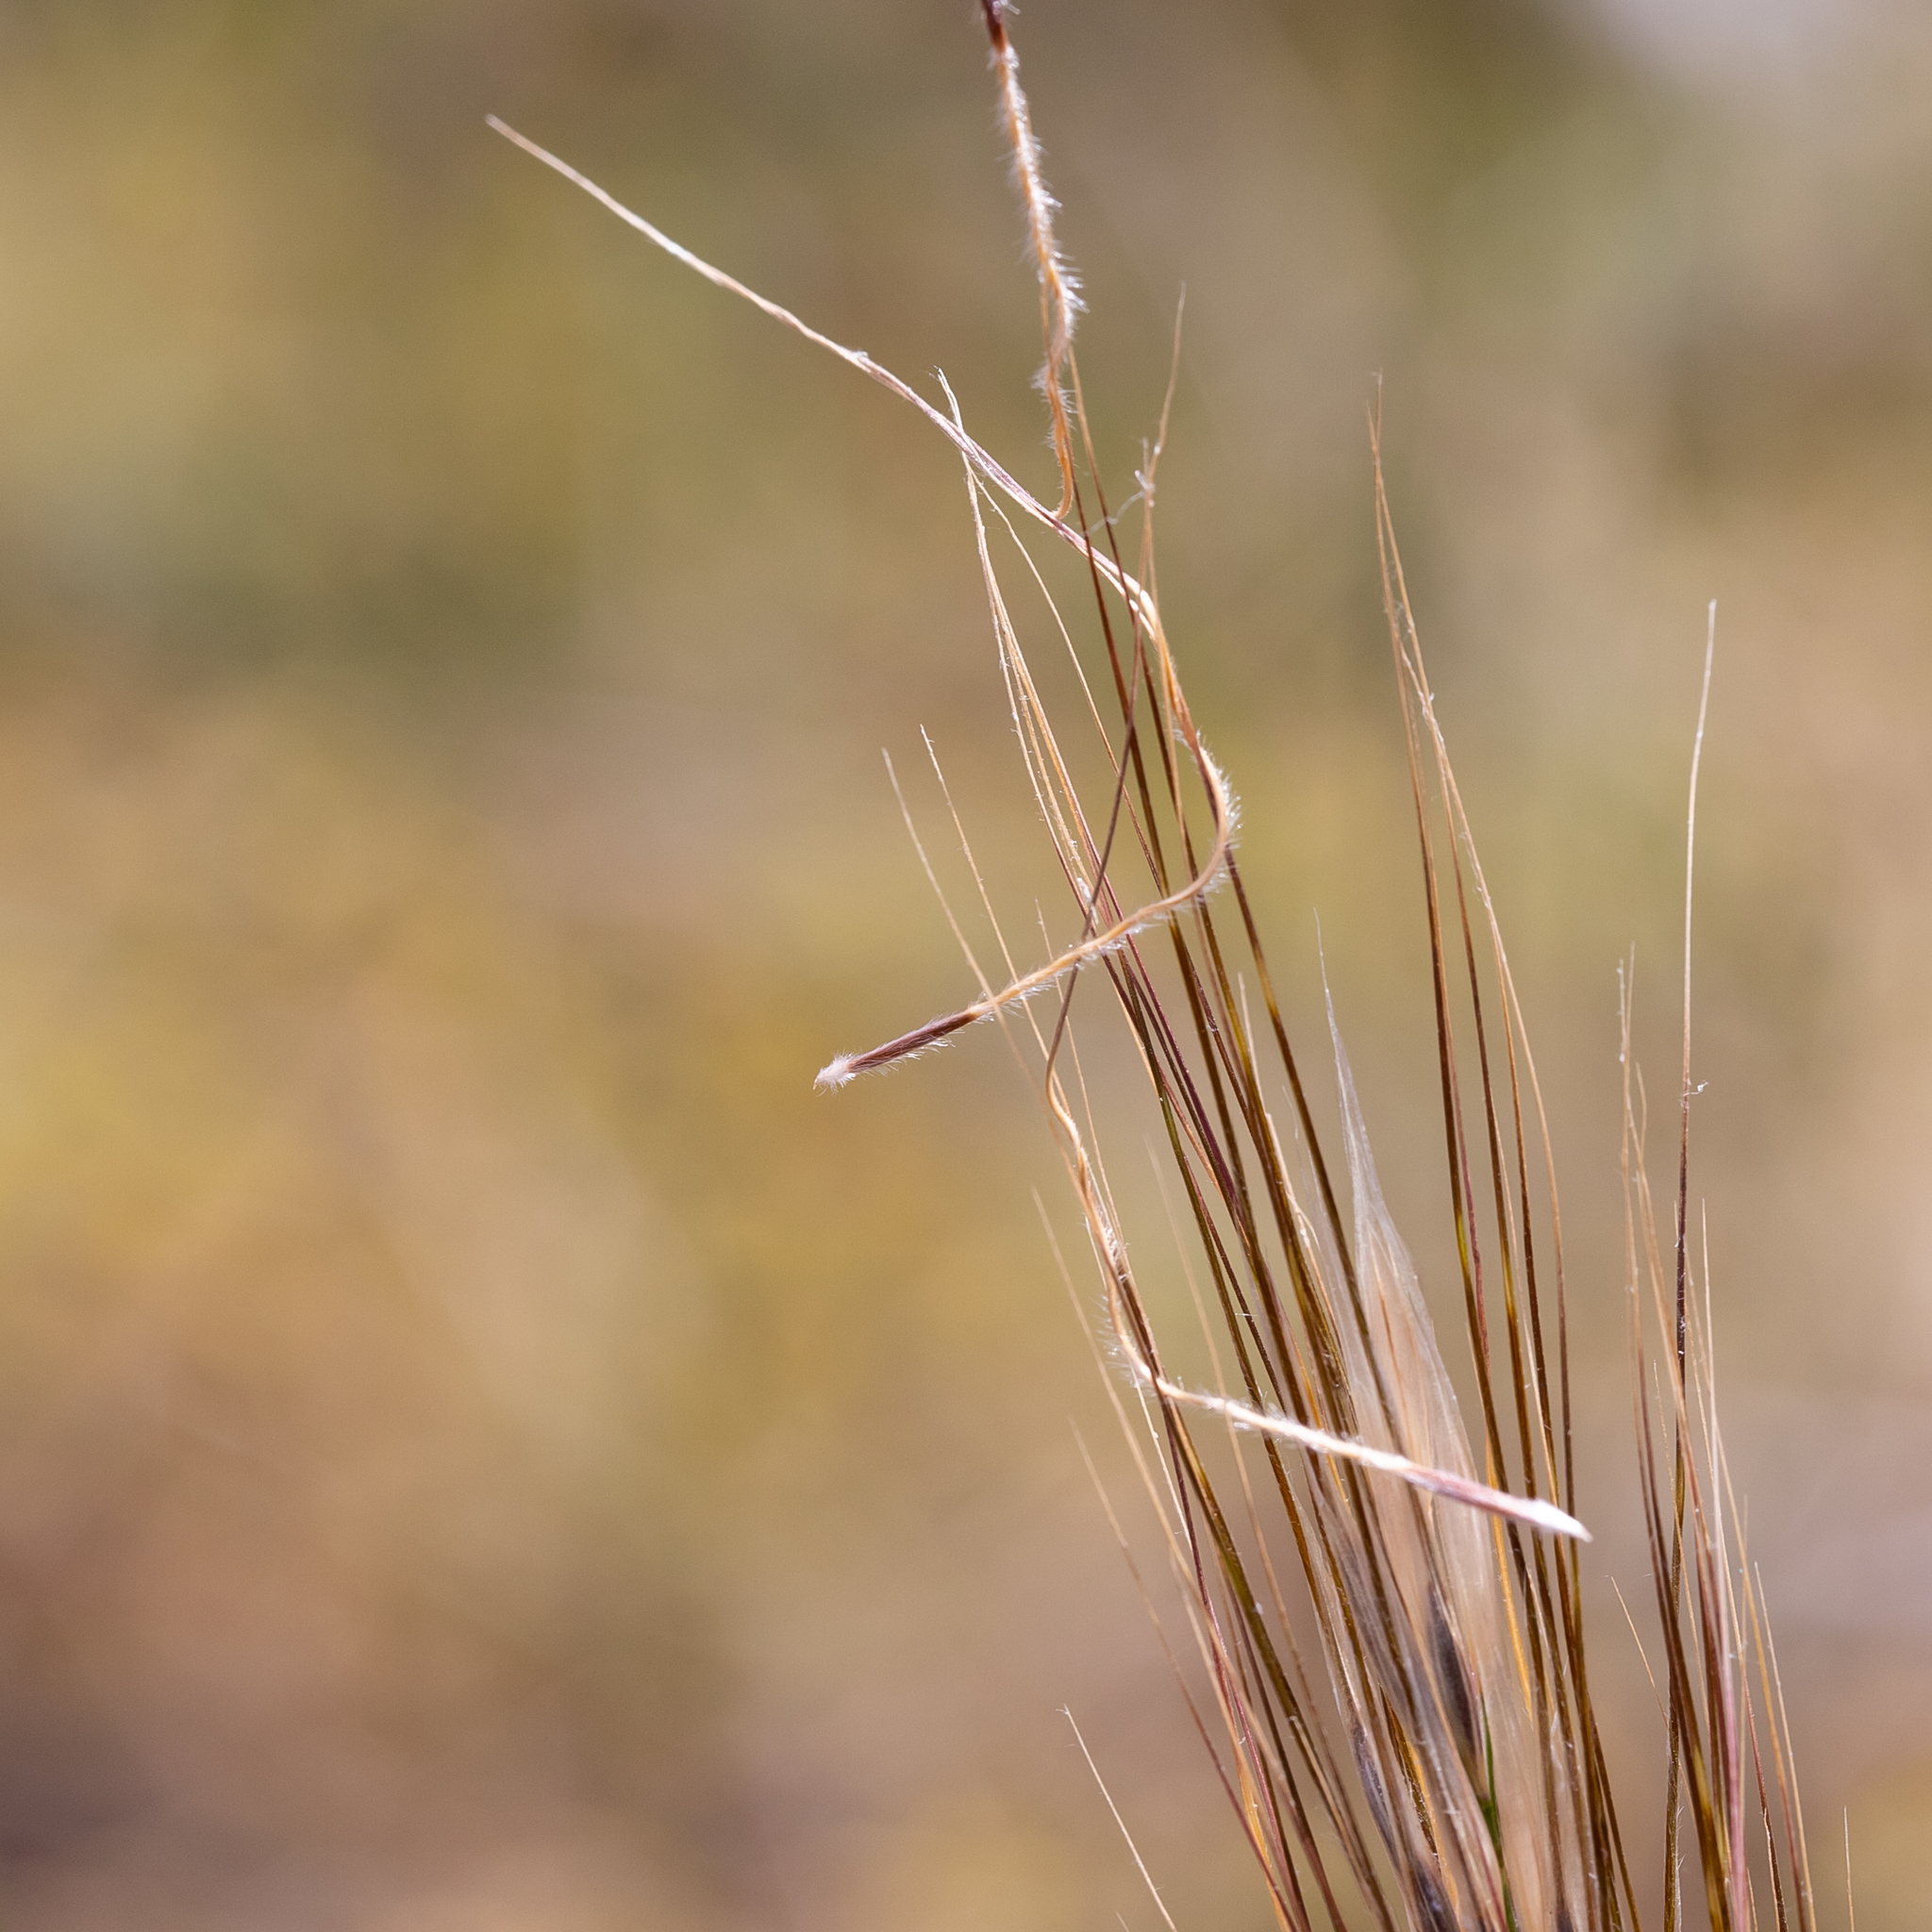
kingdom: Plantae
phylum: Tracheophyta
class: Liliopsida
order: Poales
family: Poaceae
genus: Austrostipa
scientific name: Austrostipa mollis
